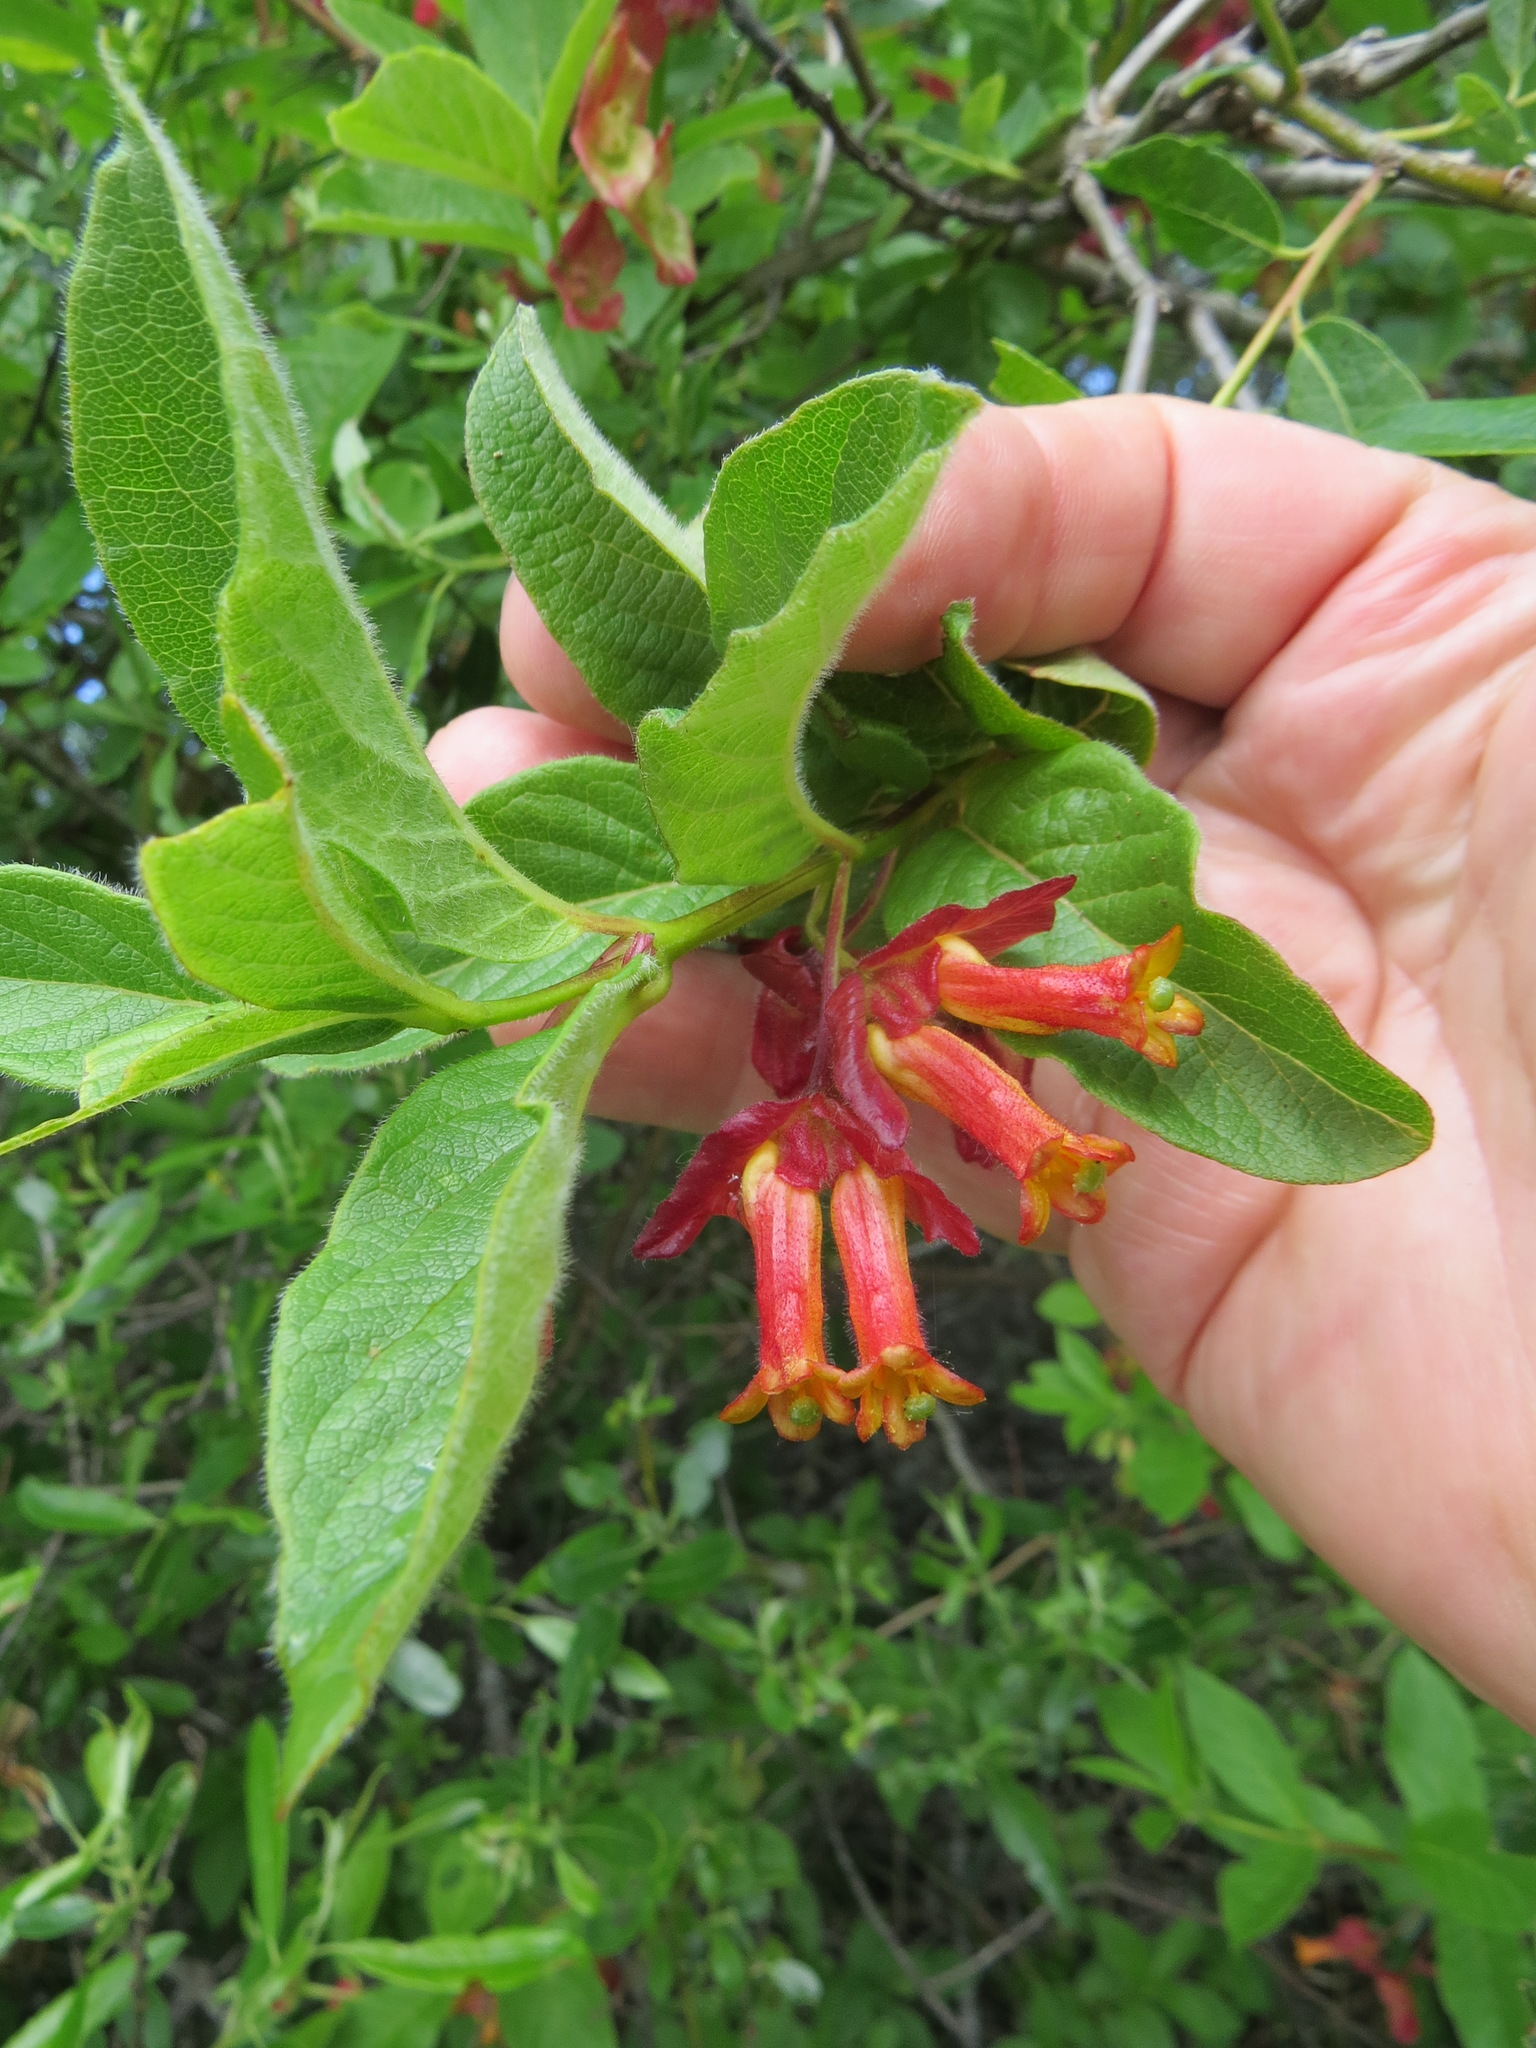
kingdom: Plantae
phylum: Tracheophyta
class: Magnoliopsida
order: Dipsacales
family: Caprifoliaceae
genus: Lonicera
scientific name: Lonicera involucrata
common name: Californian honeysuckle
